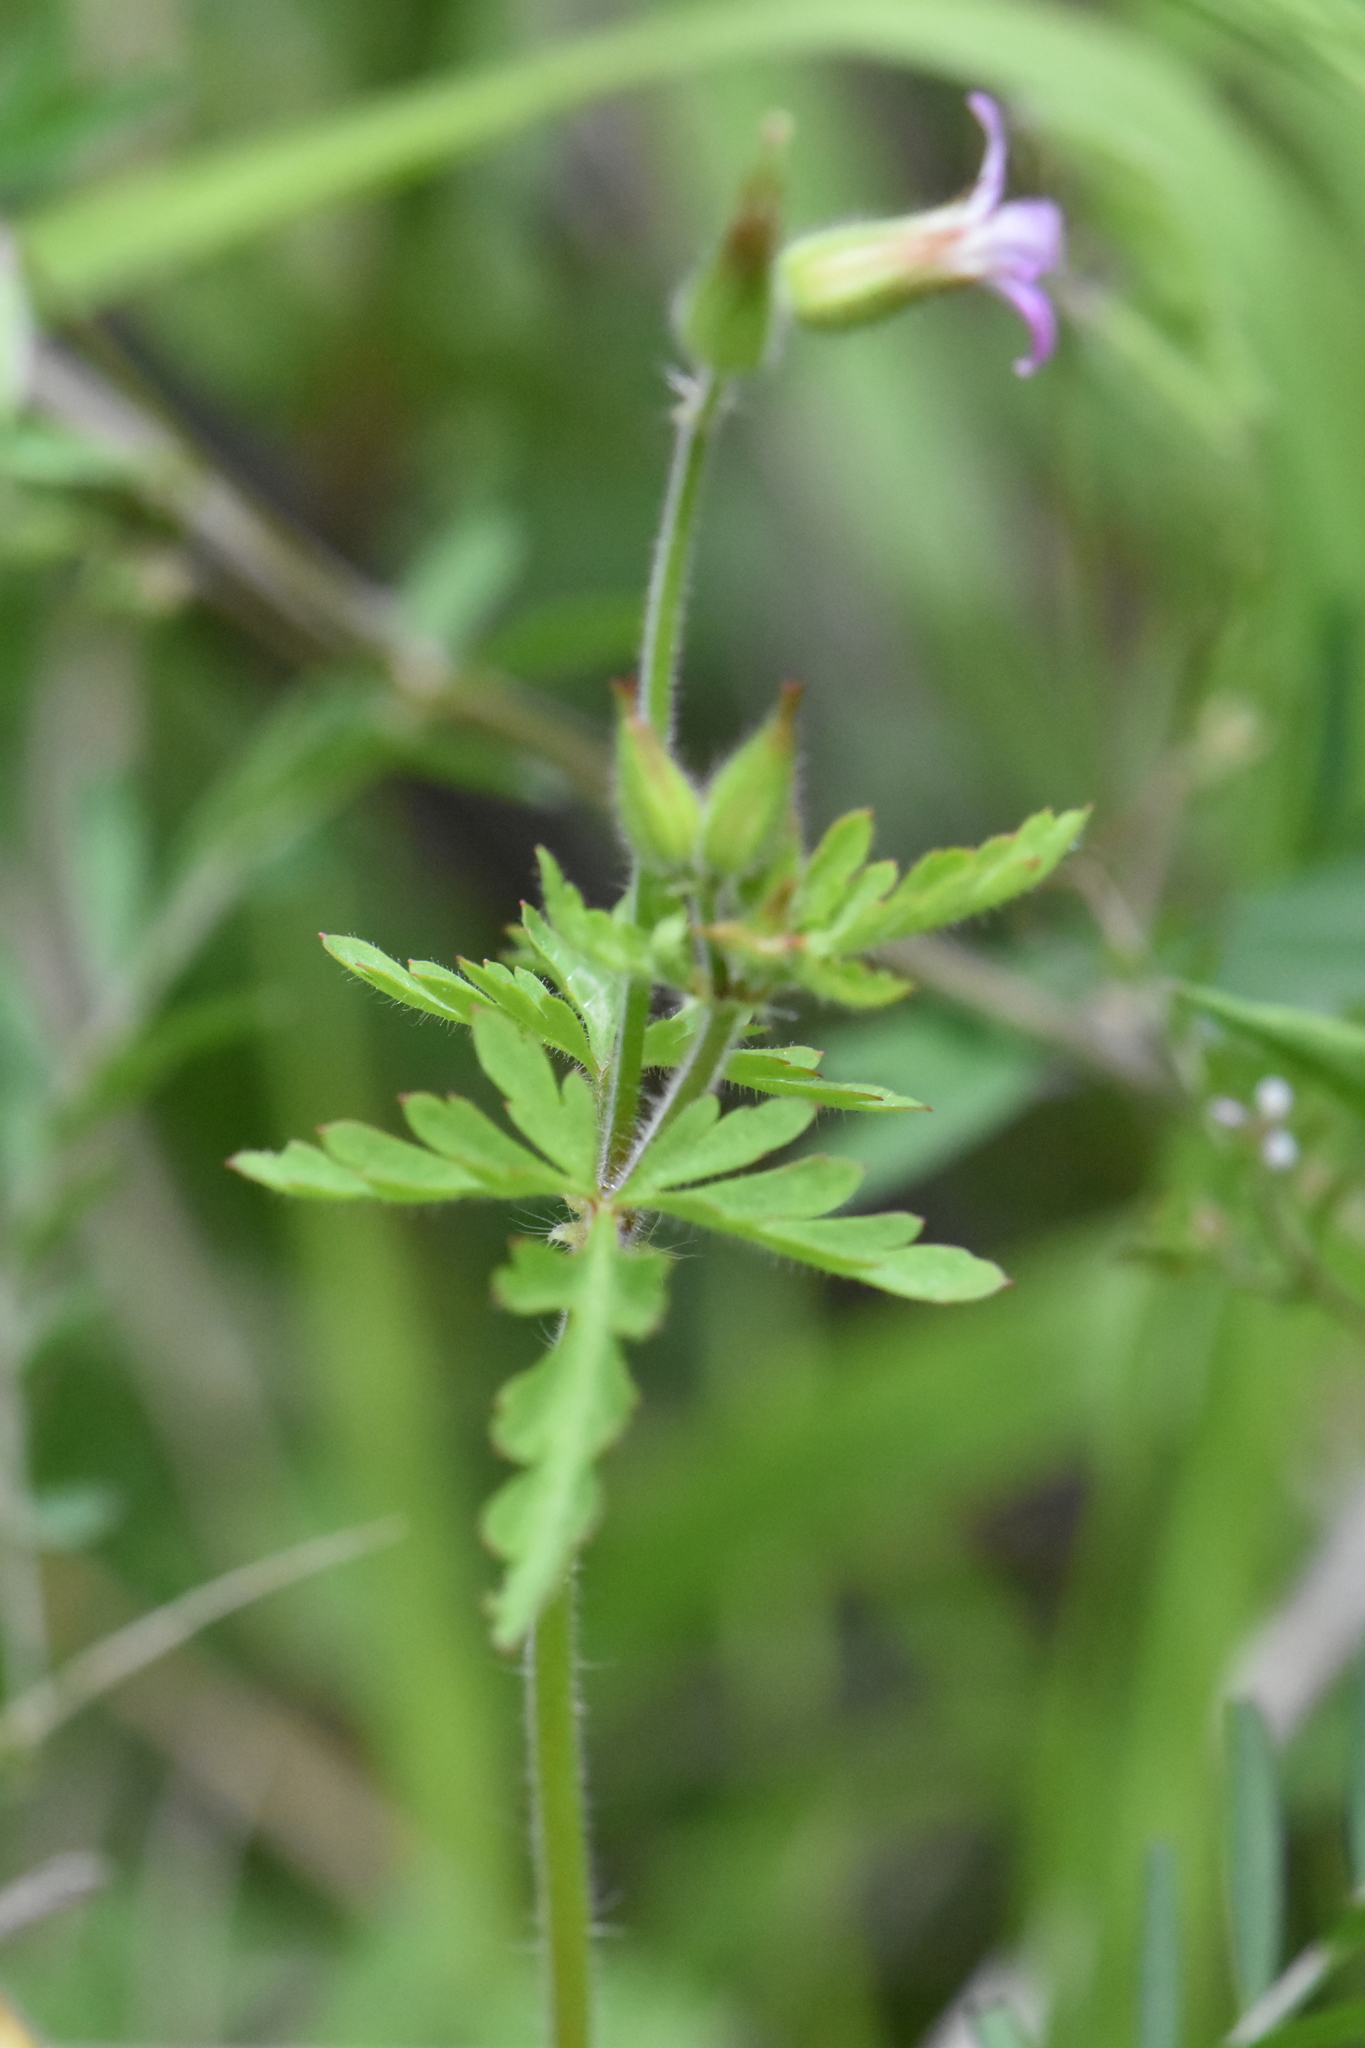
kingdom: Plantae
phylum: Tracheophyta
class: Magnoliopsida
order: Geraniales
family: Geraniaceae
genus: Geranium
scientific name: Geranium purpureum
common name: Little-robin
